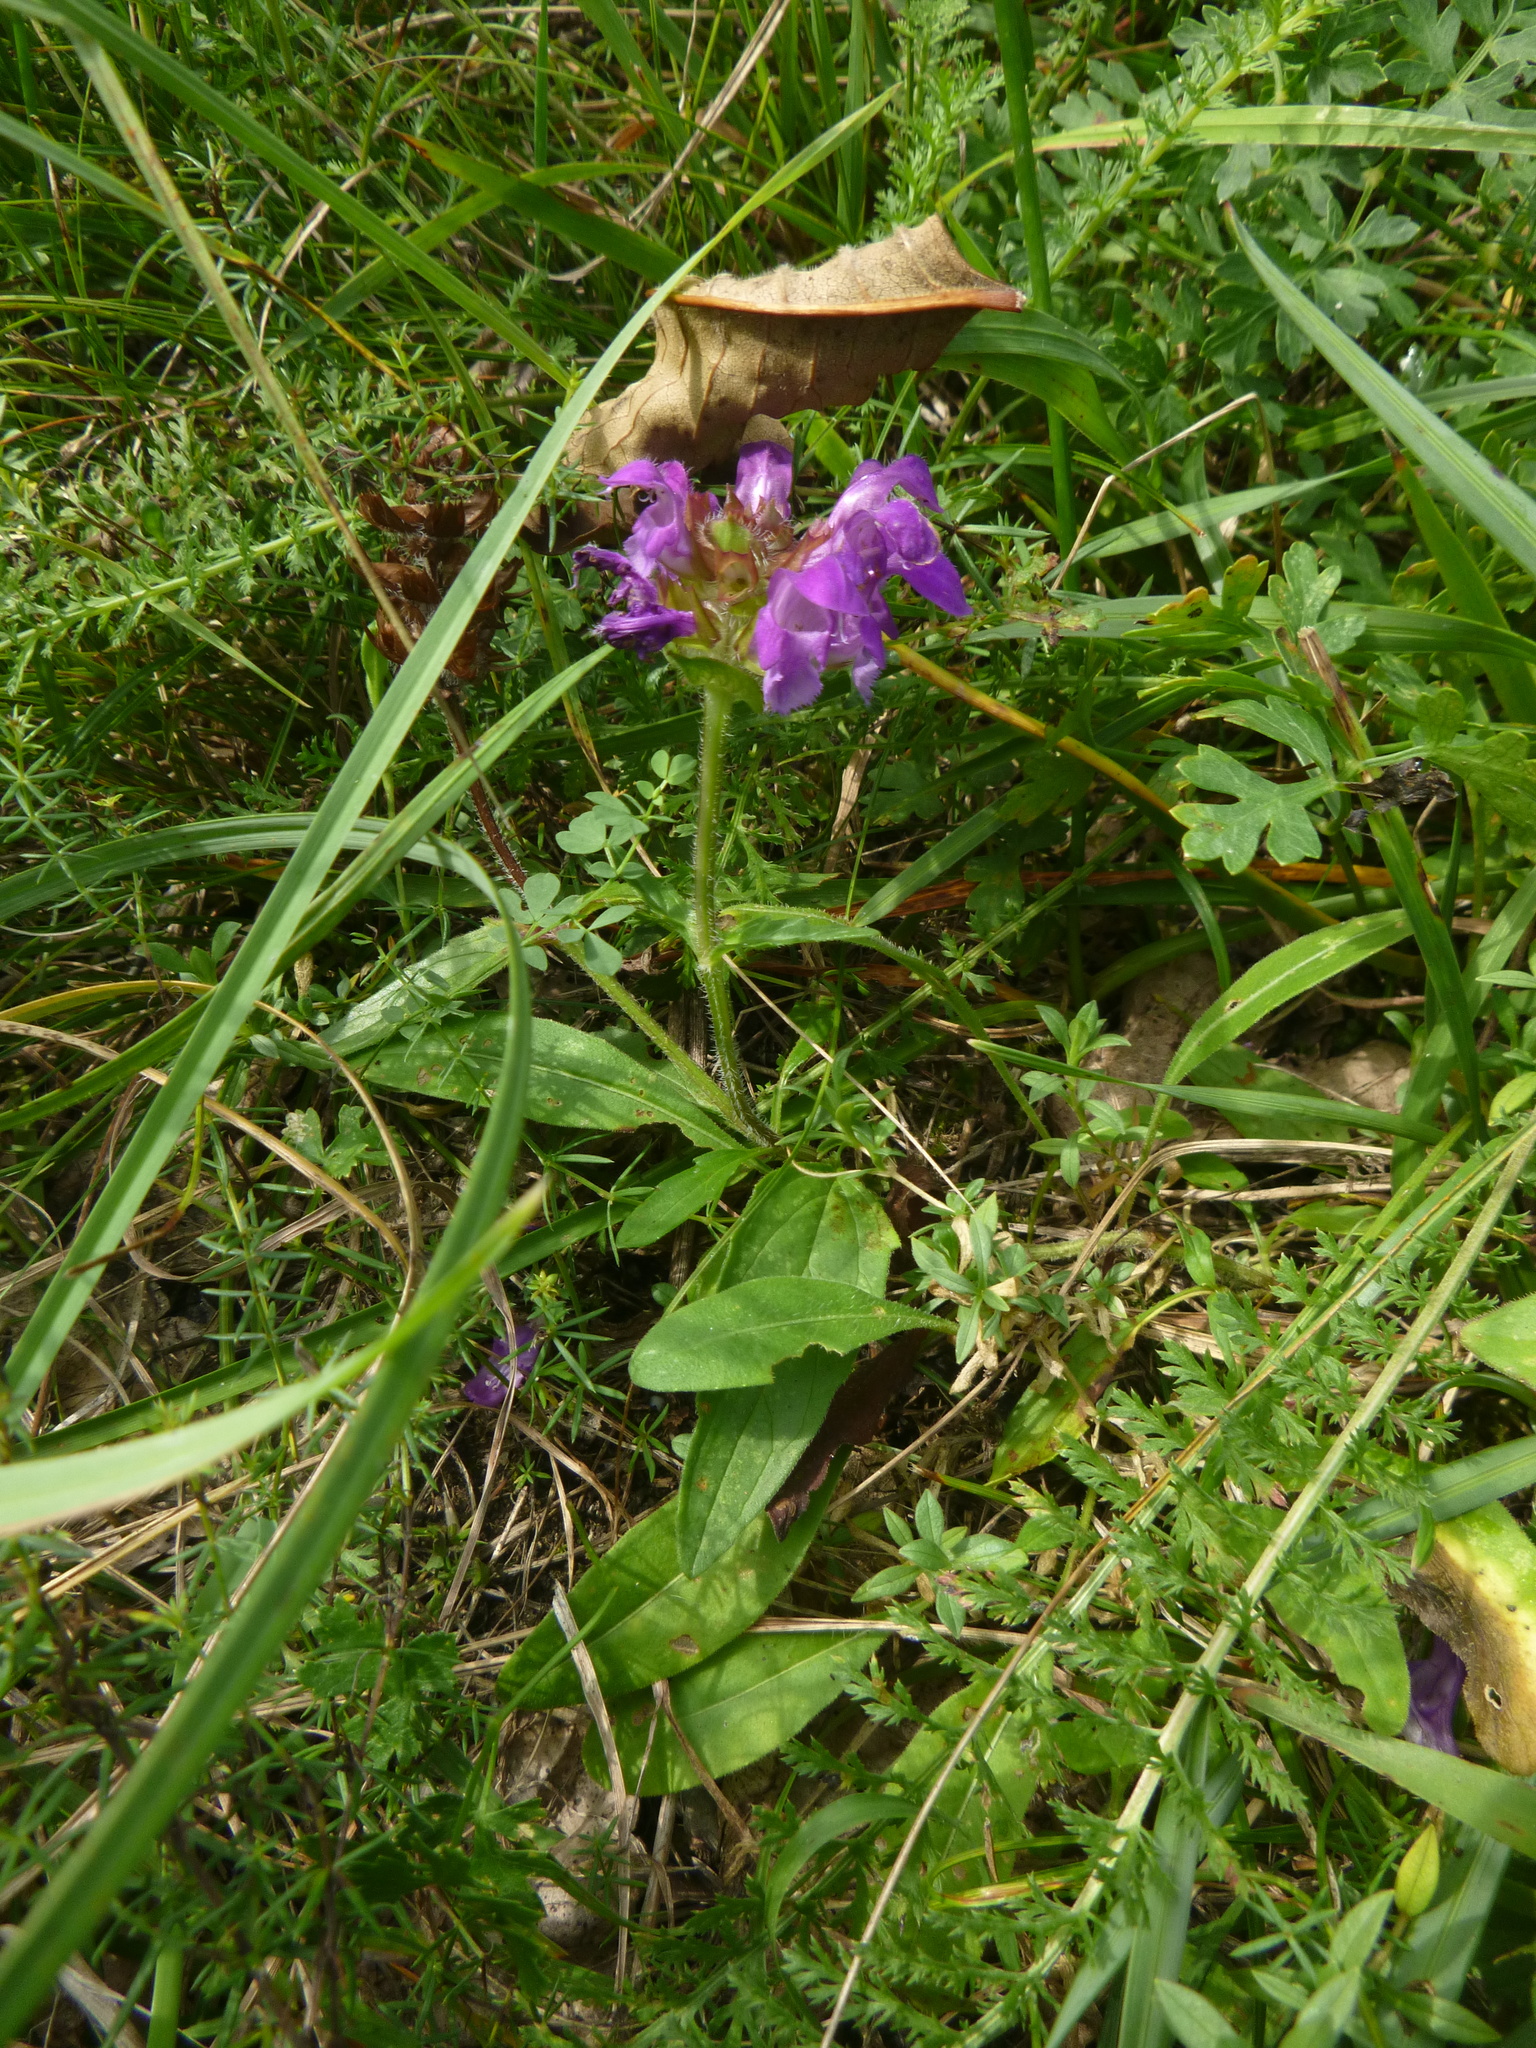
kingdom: Plantae
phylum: Tracheophyta
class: Magnoliopsida
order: Lamiales
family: Lamiaceae
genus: Prunella
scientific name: Prunella grandiflora
